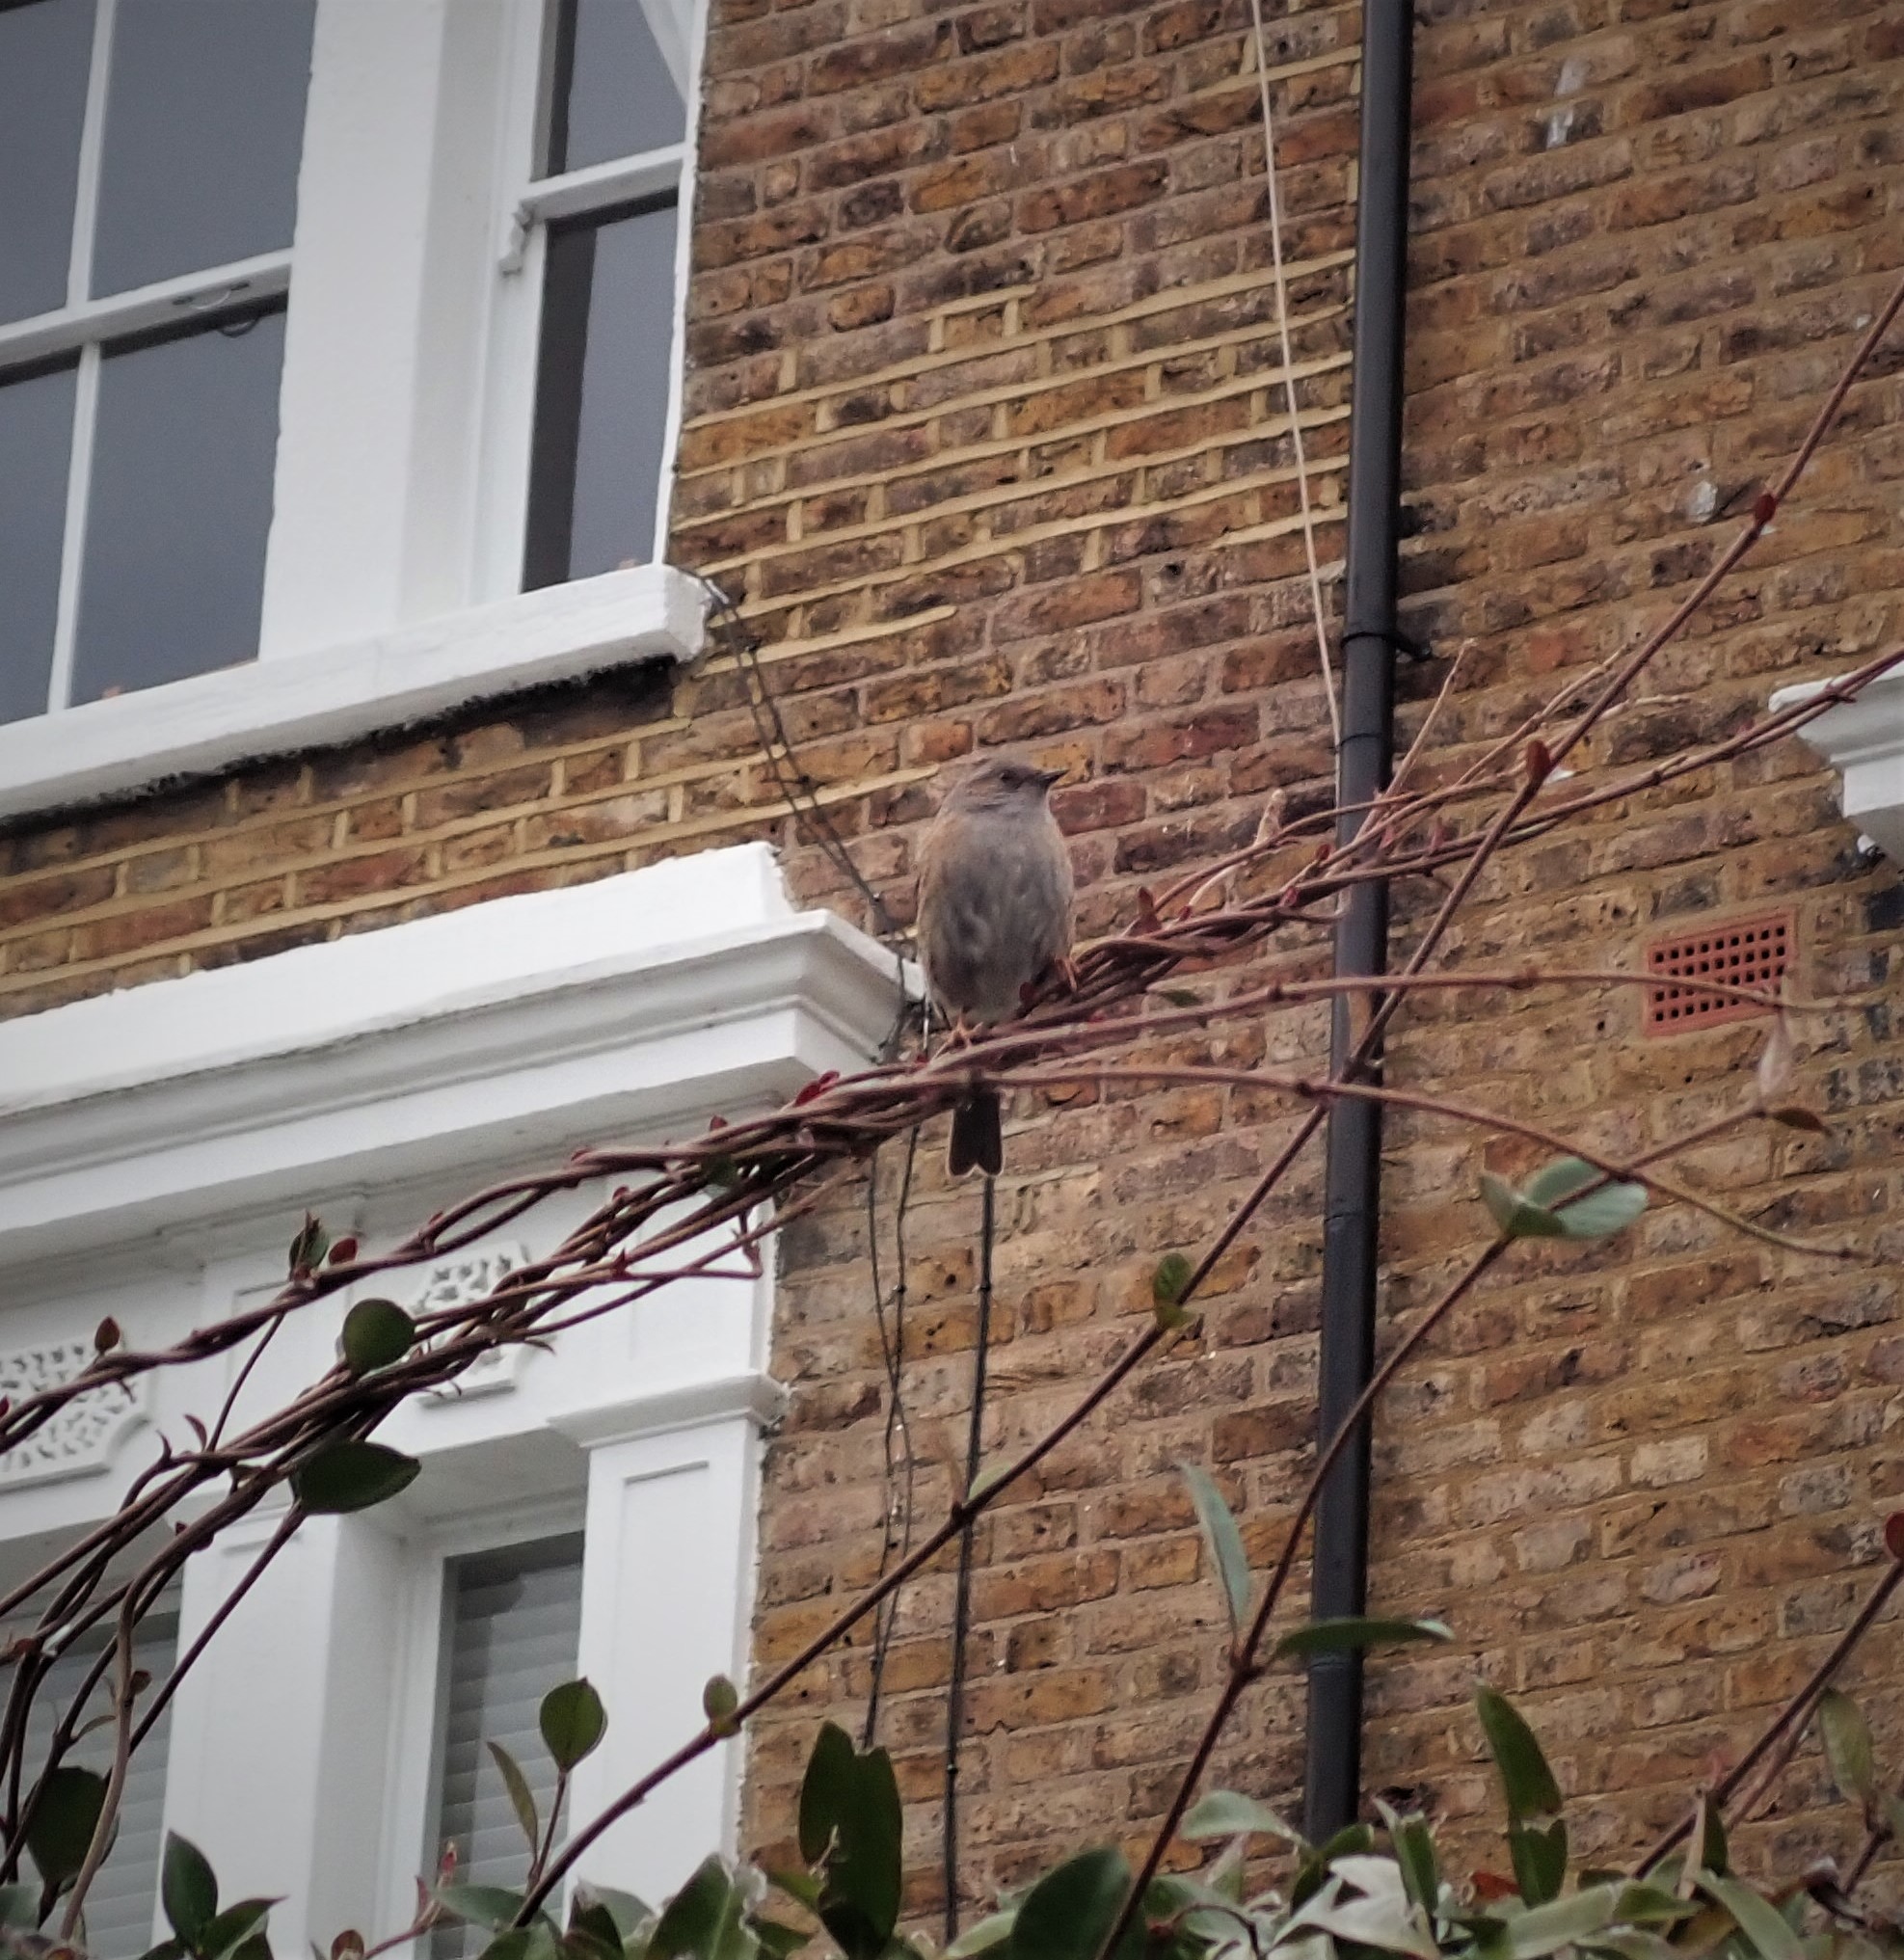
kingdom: Animalia
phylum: Chordata
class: Aves
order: Passeriformes
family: Prunellidae
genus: Prunella
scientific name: Prunella modularis
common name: Dunnock
